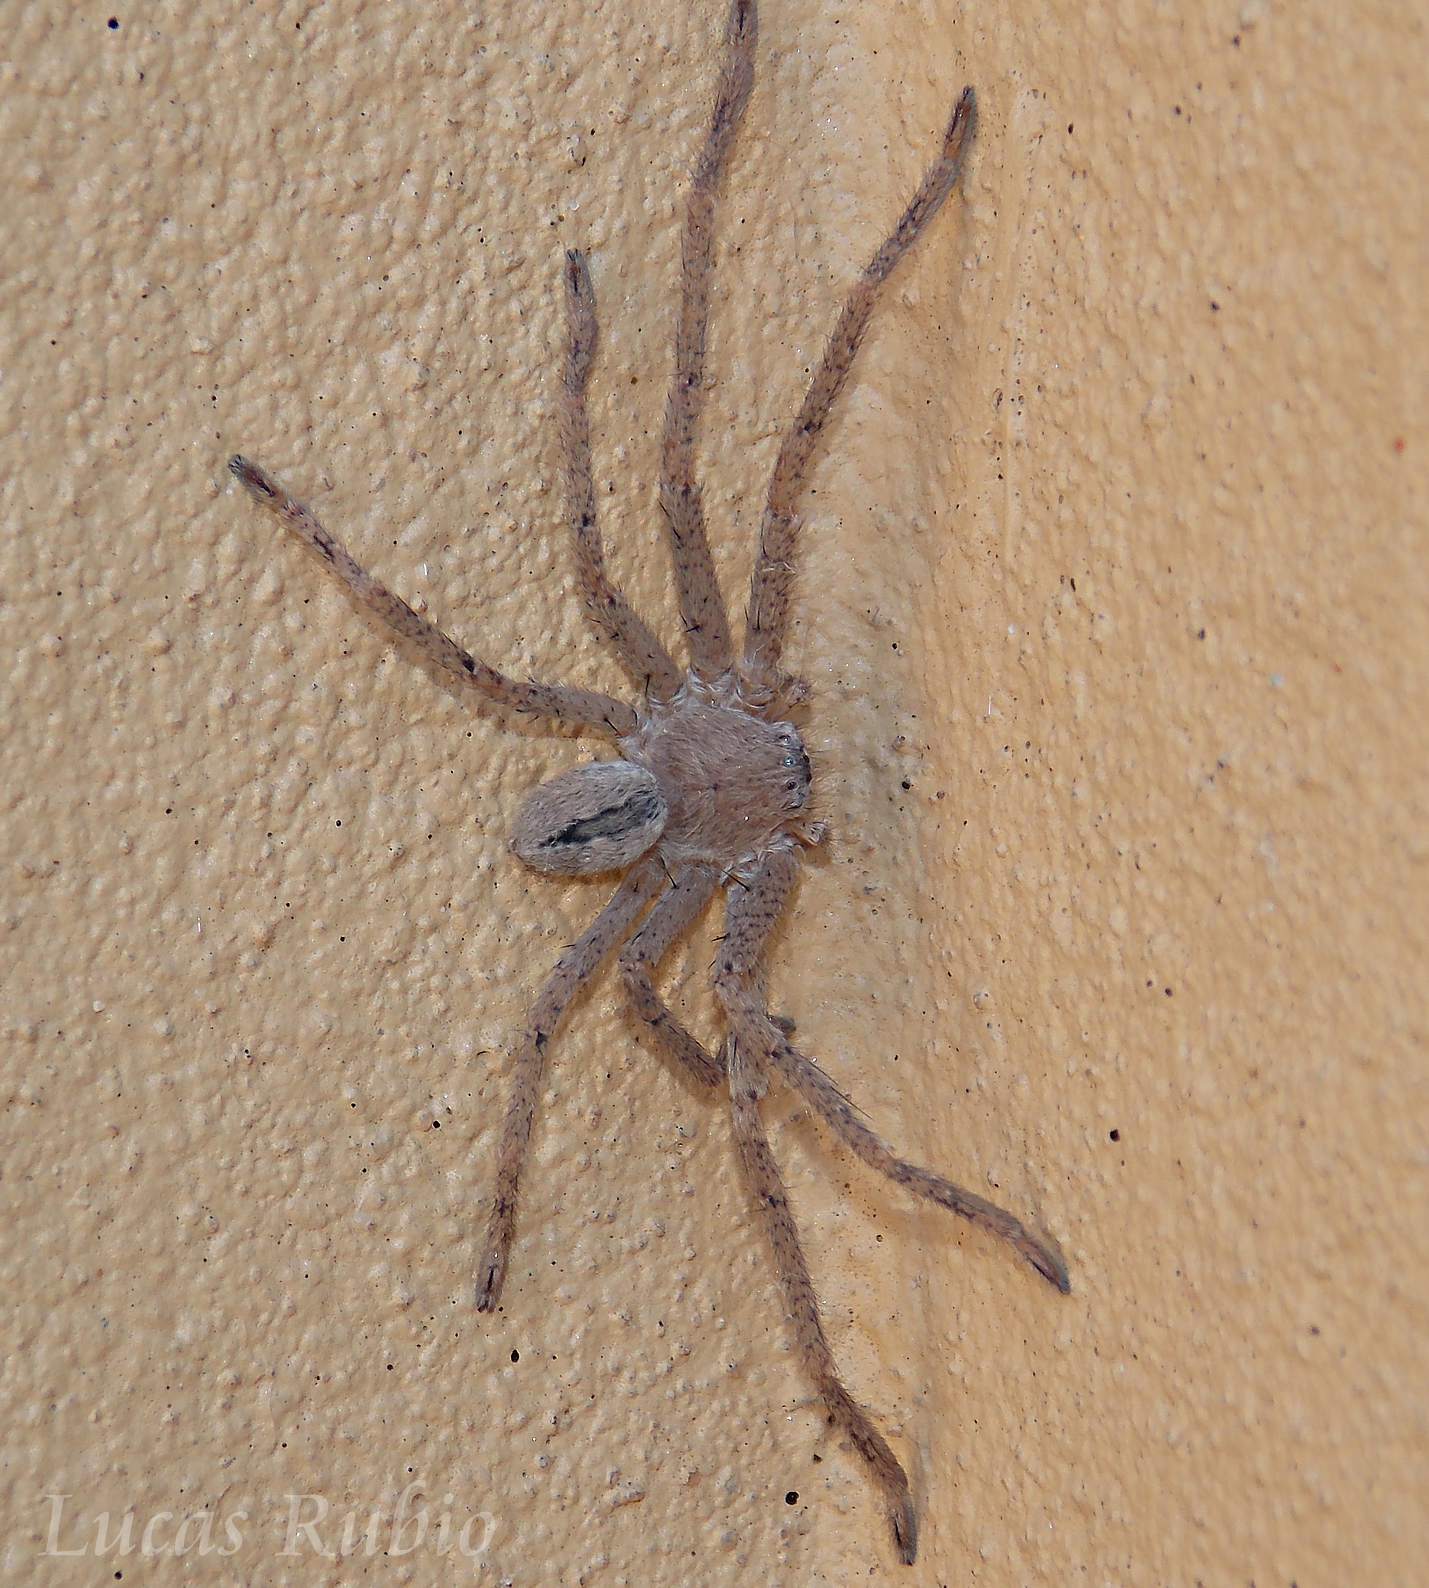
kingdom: Animalia
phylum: Arthropoda
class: Arachnida
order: Araneae
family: Sparassidae
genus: Polybetes
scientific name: Polybetes trifoveatus
